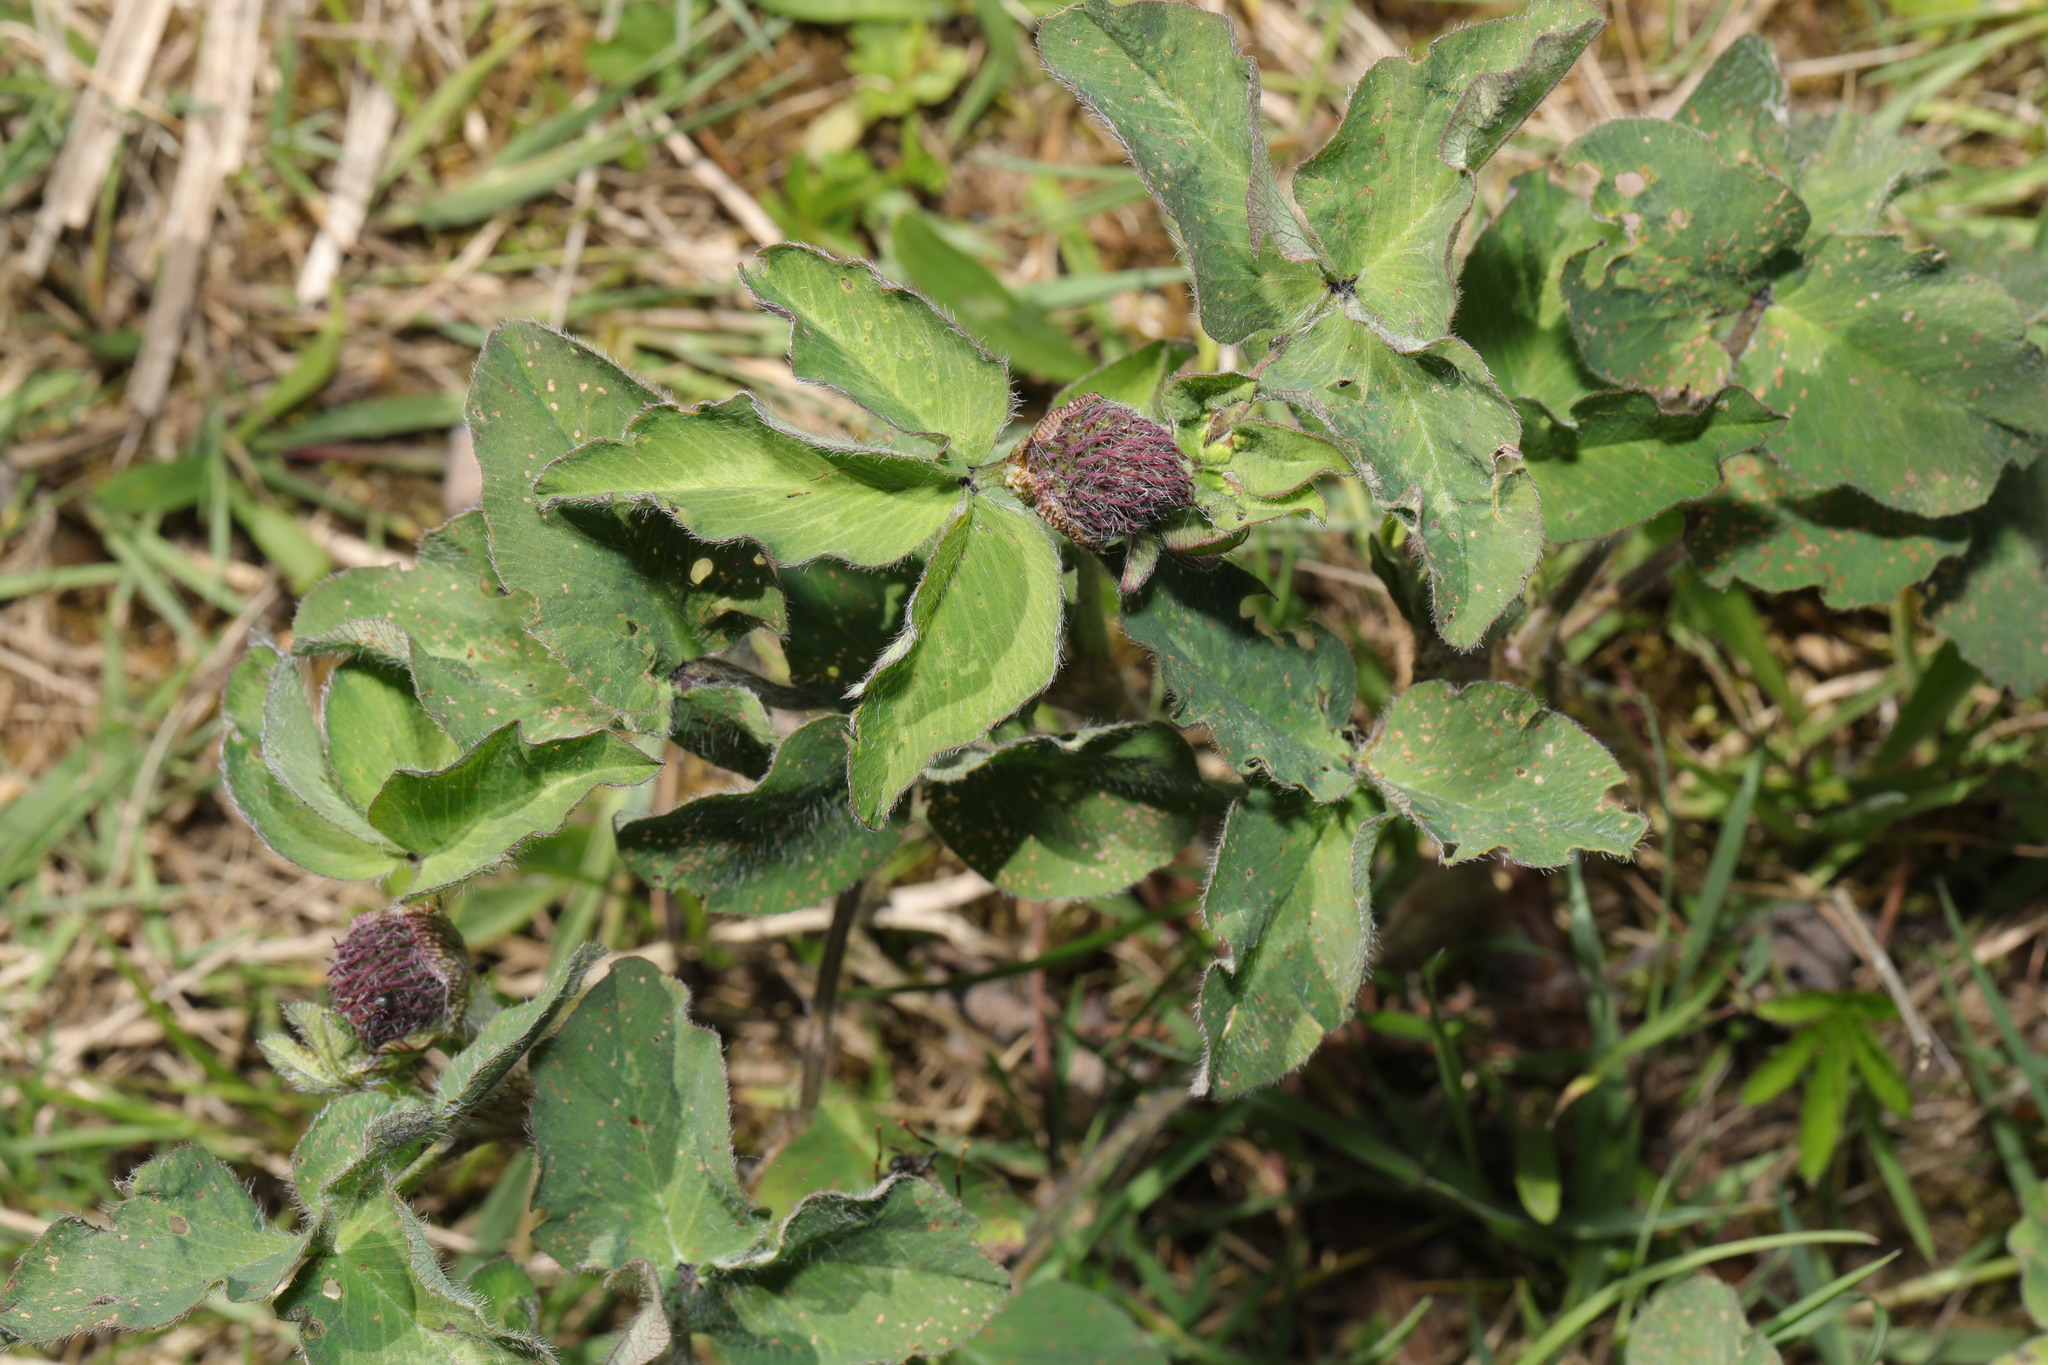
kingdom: Plantae
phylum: Tracheophyta
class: Magnoliopsida
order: Fabales
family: Fabaceae
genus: Trifolium
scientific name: Trifolium pratense
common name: Red clover
